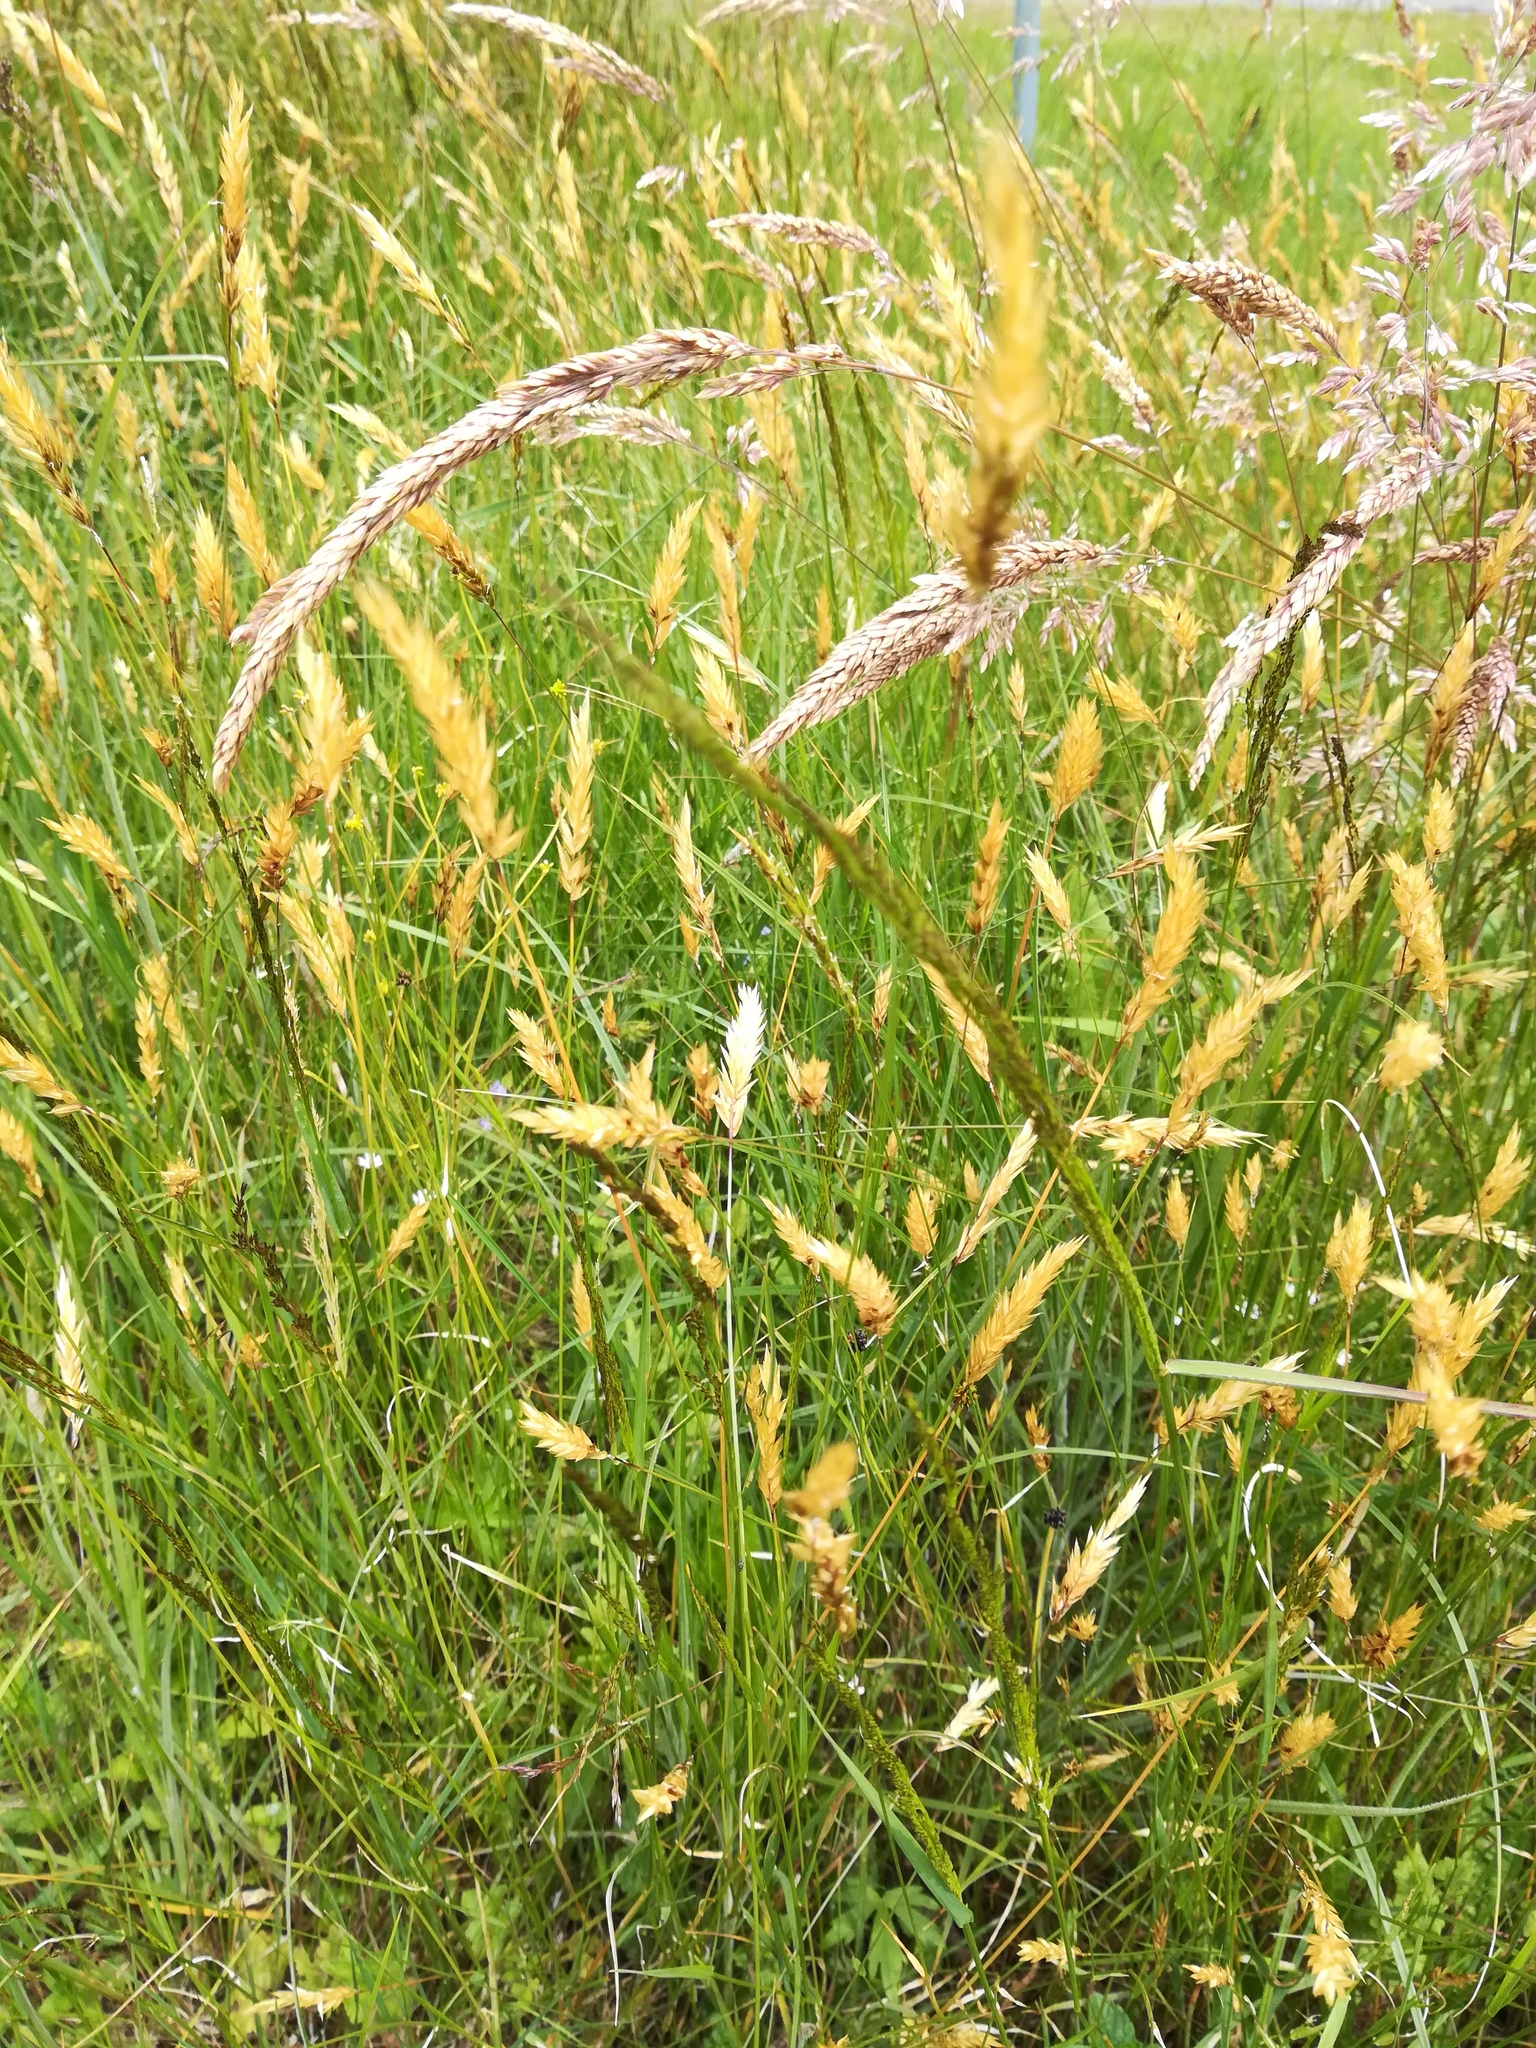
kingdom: Plantae
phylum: Tracheophyta
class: Liliopsida
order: Poales
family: Poaceae
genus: Anthoxanthum
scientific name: Anthoxanthum odoratum
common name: Sweet vernalgrass
